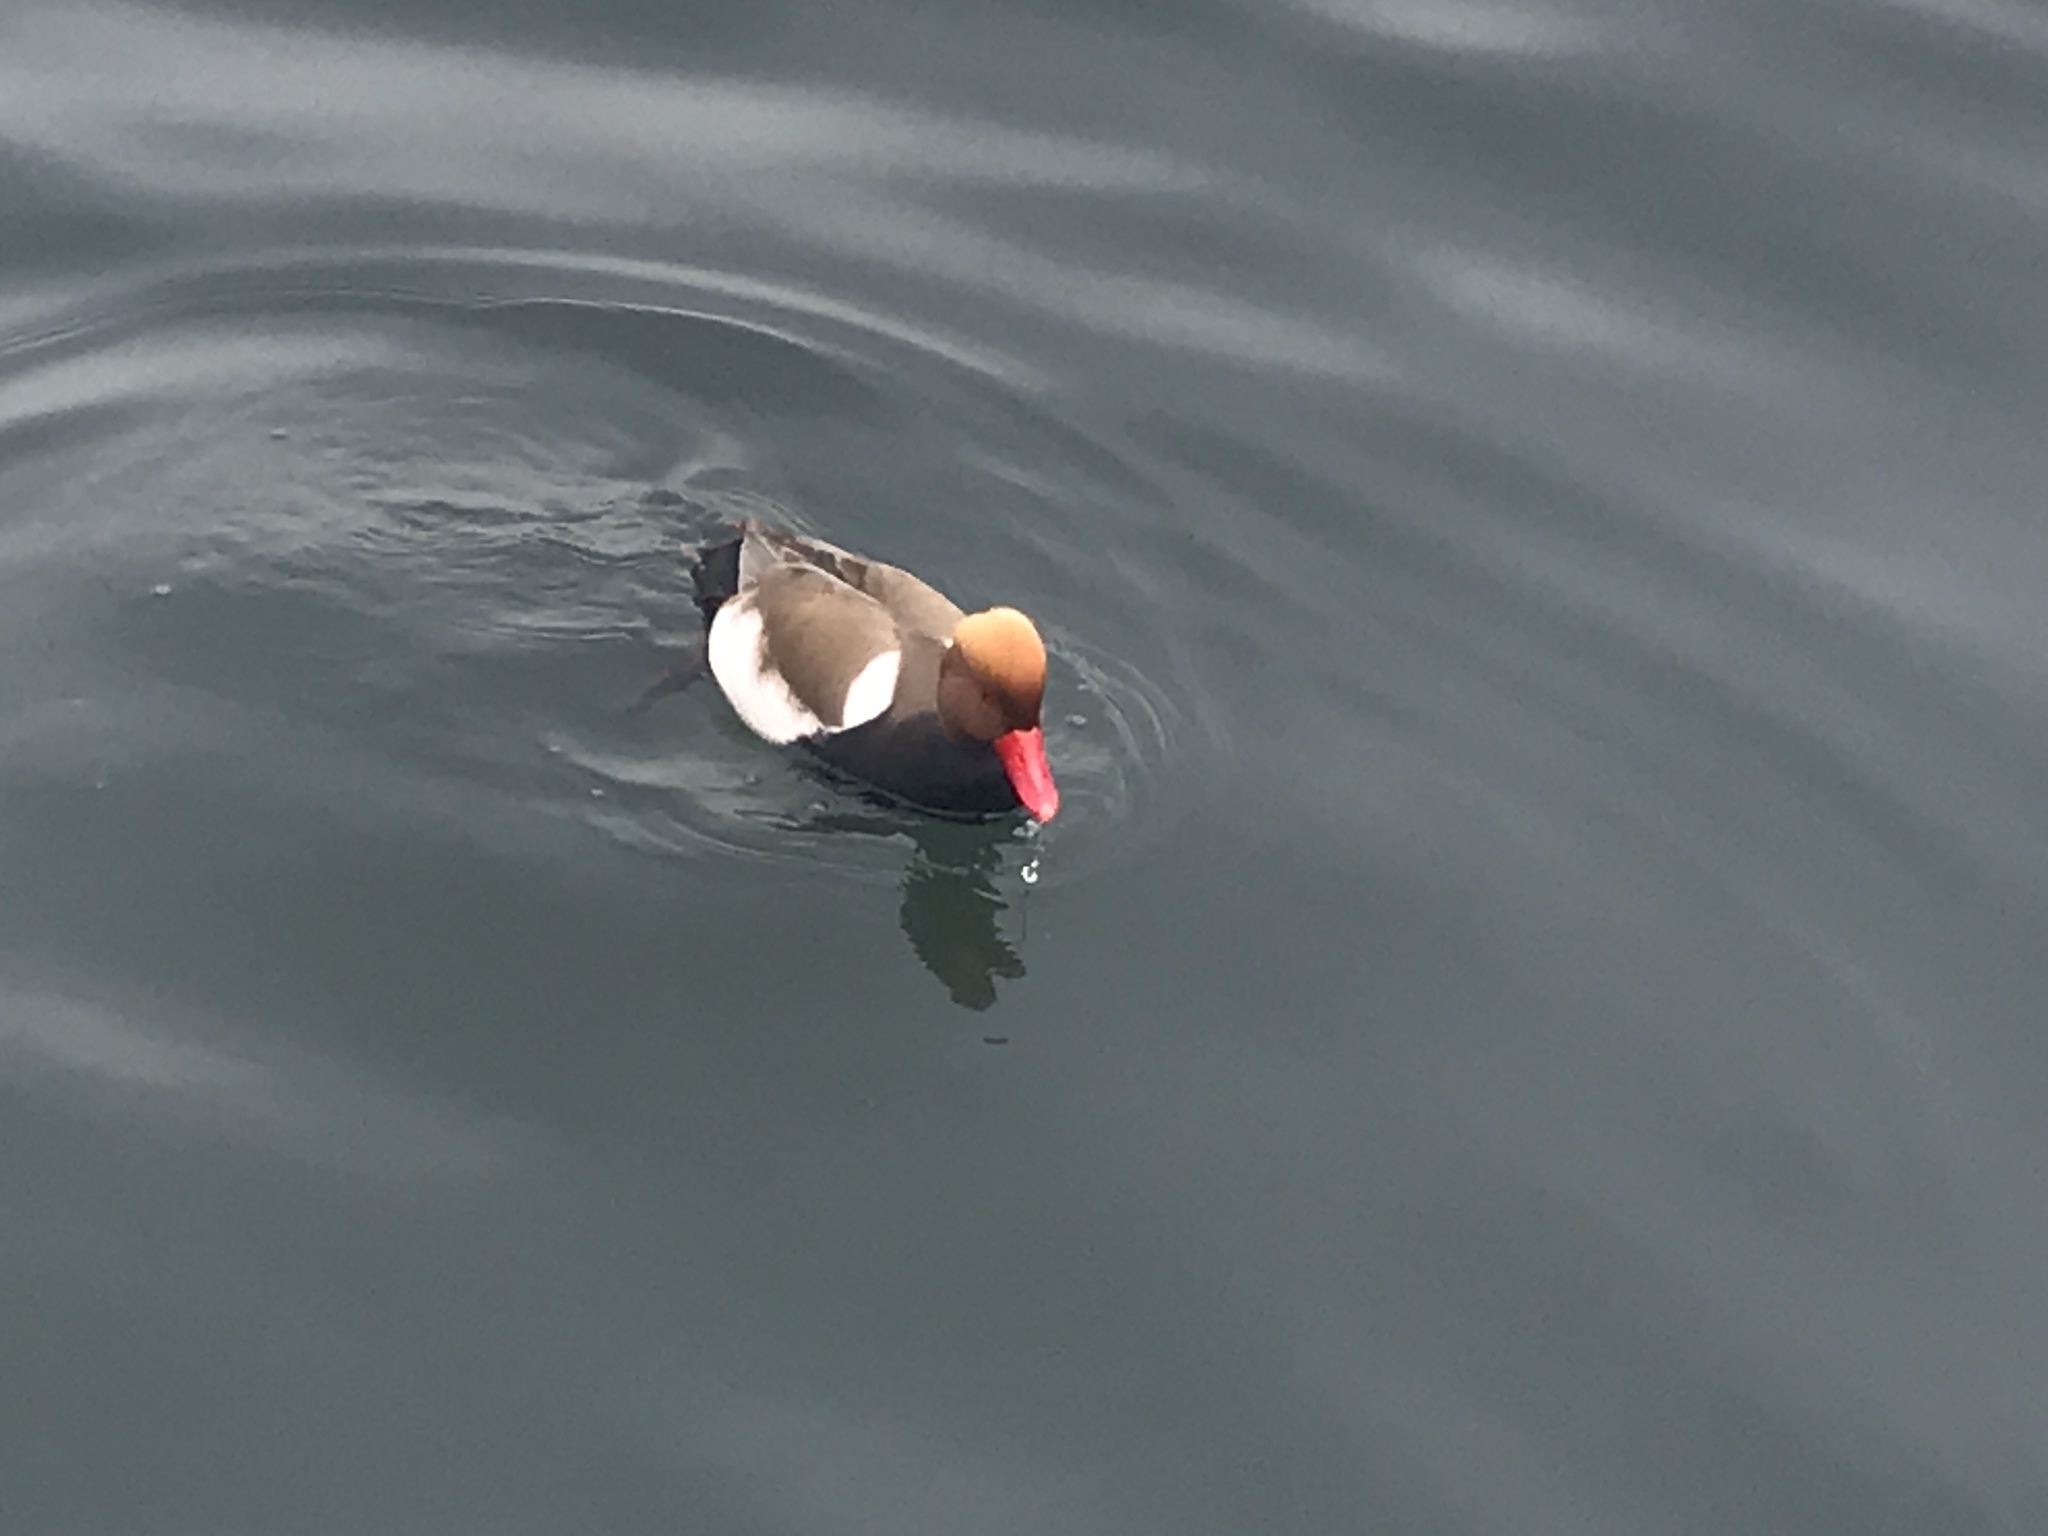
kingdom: Animalia
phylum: Chordata
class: Aves
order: Anseriformes
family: Anatidae
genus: Netta
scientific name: Netta rufina
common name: Red-crested pochard
